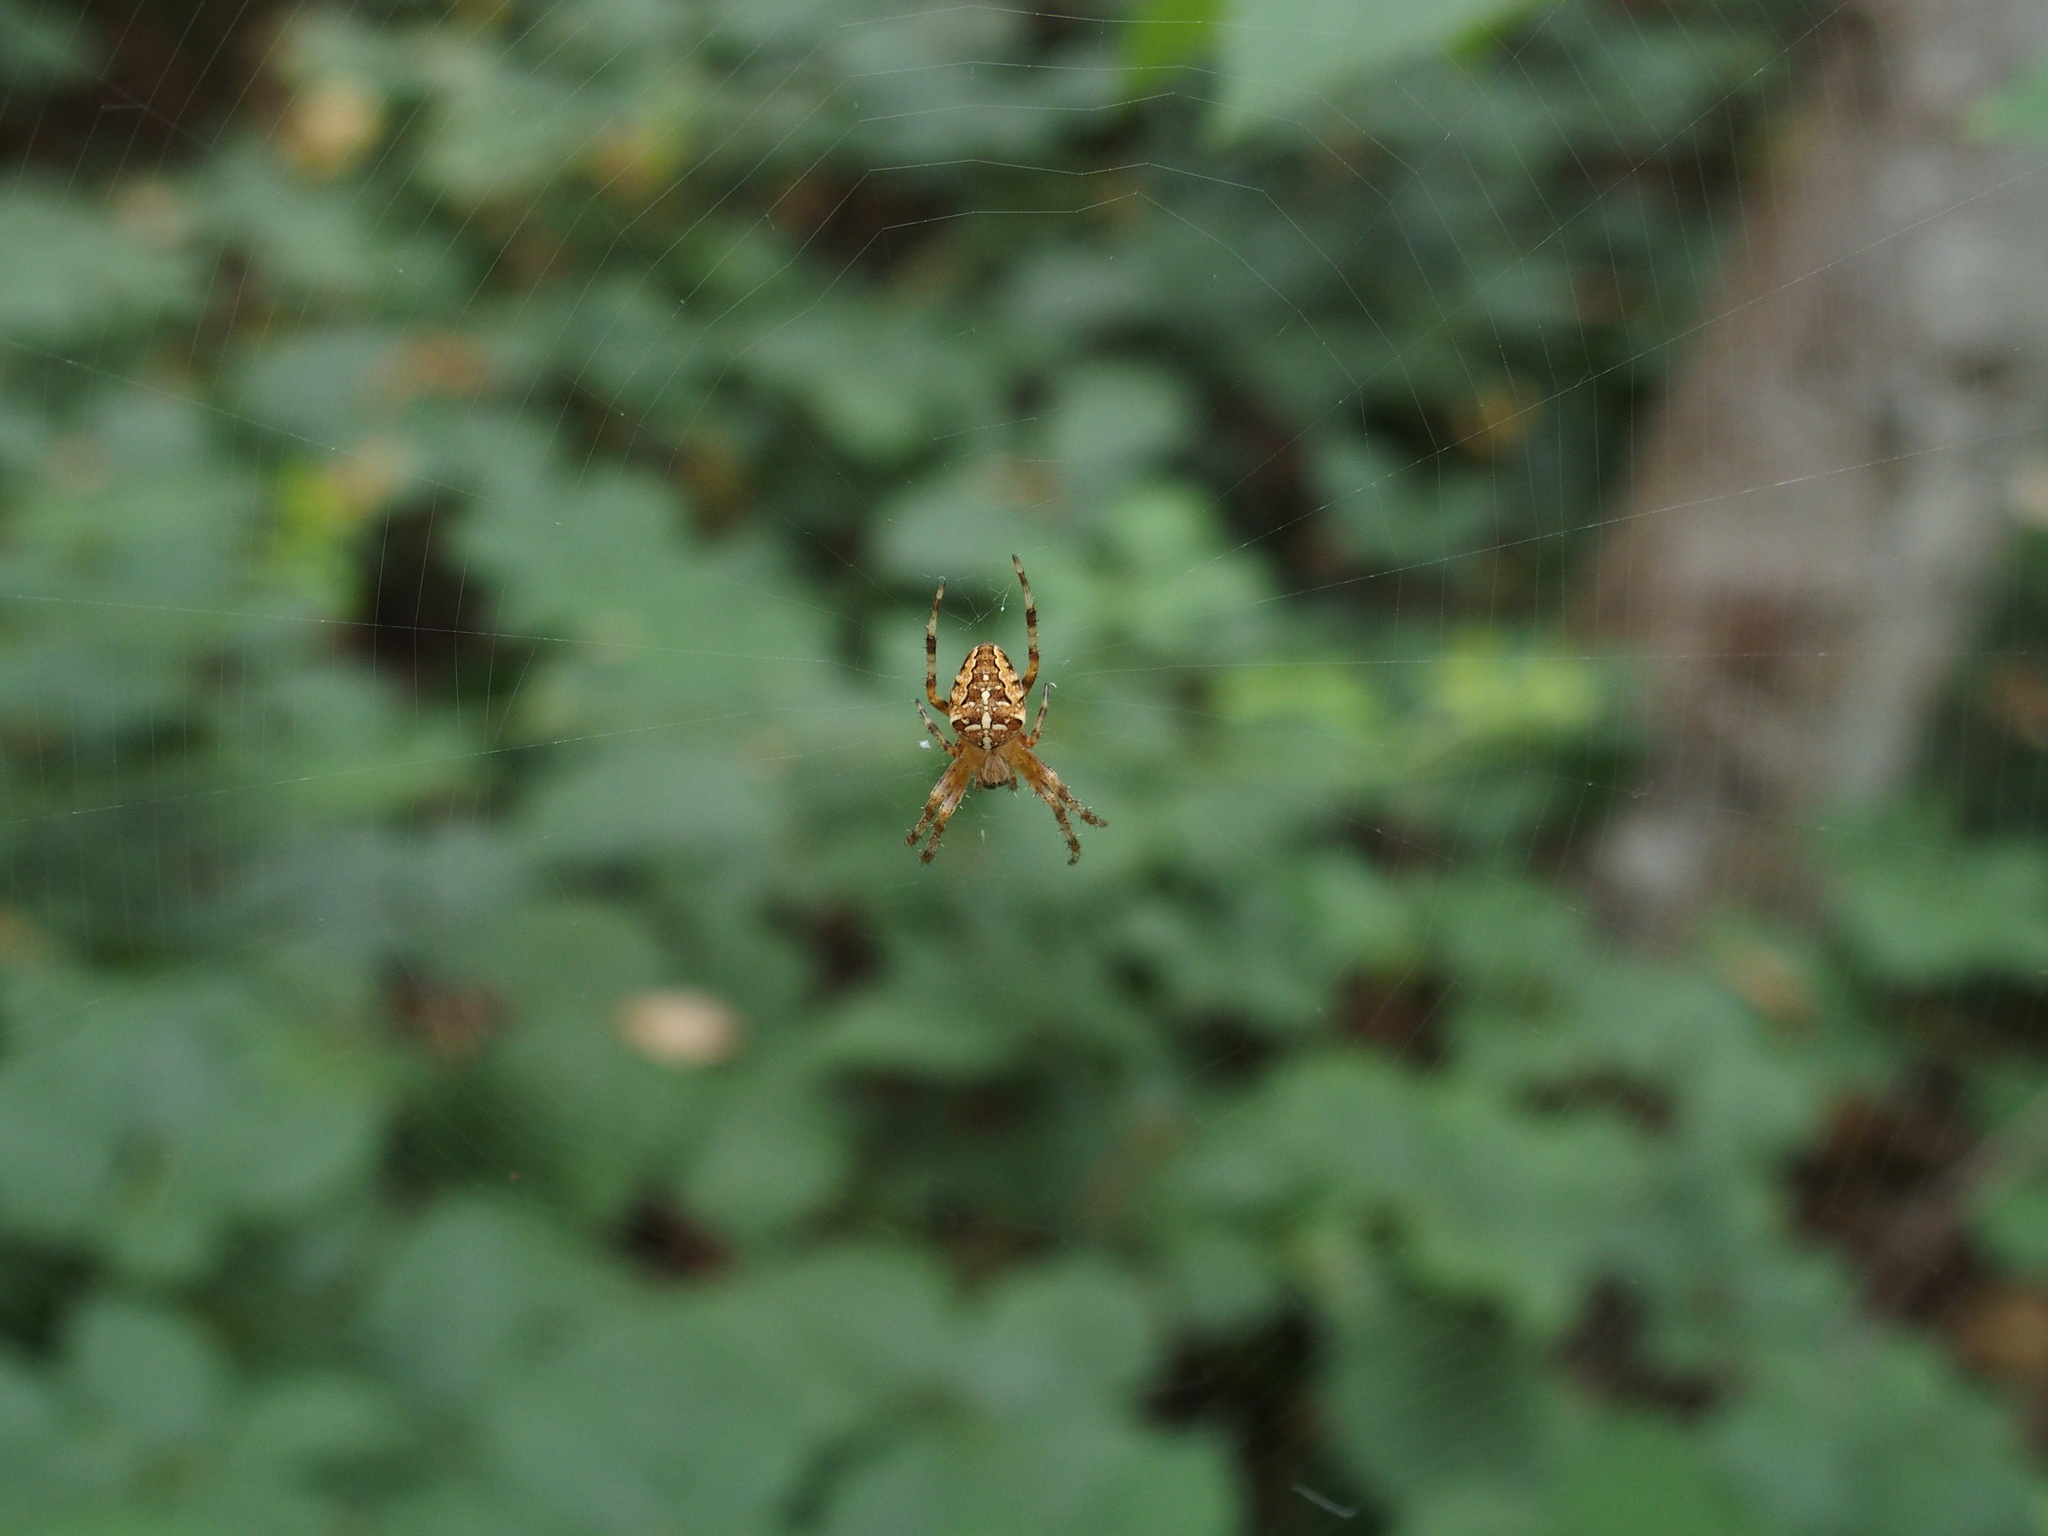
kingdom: Animalia
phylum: Arthropoda
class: Arachnida
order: Araneae
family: Araneidae
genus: Araneus
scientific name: Araneus diadematus
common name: Cross orbweaver
